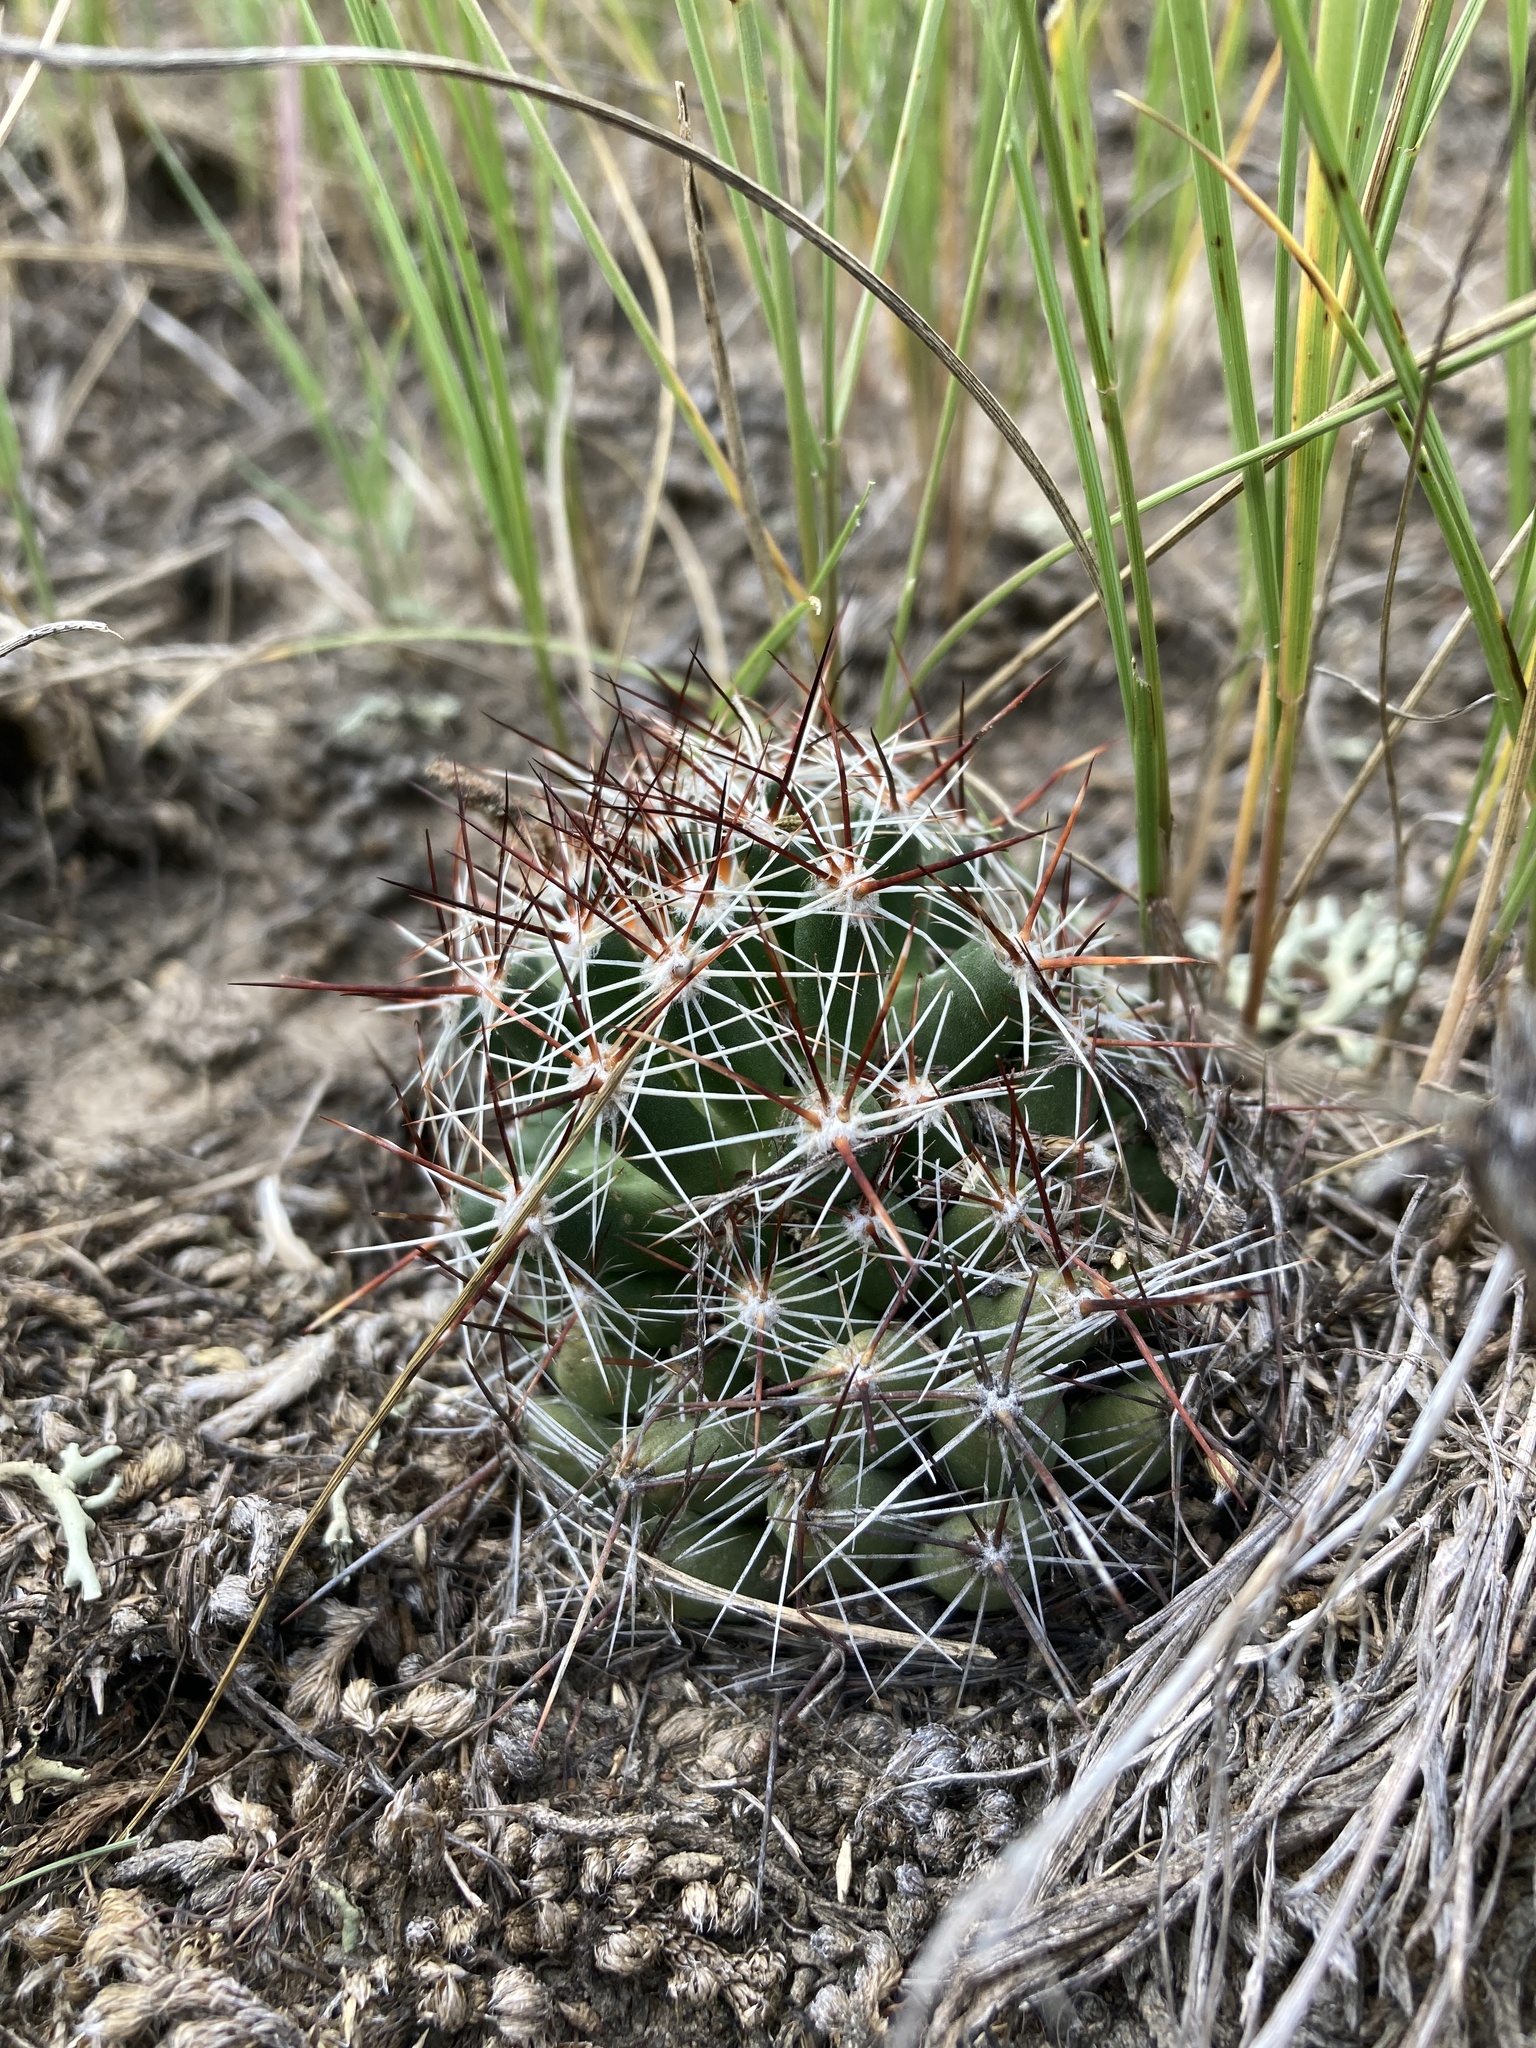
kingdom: Plantae
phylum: Tracheophyta
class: Magnoliopsida
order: Caryophyllales
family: Cactaceae
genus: Pelecyphora
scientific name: Pelecyphora vivipara
